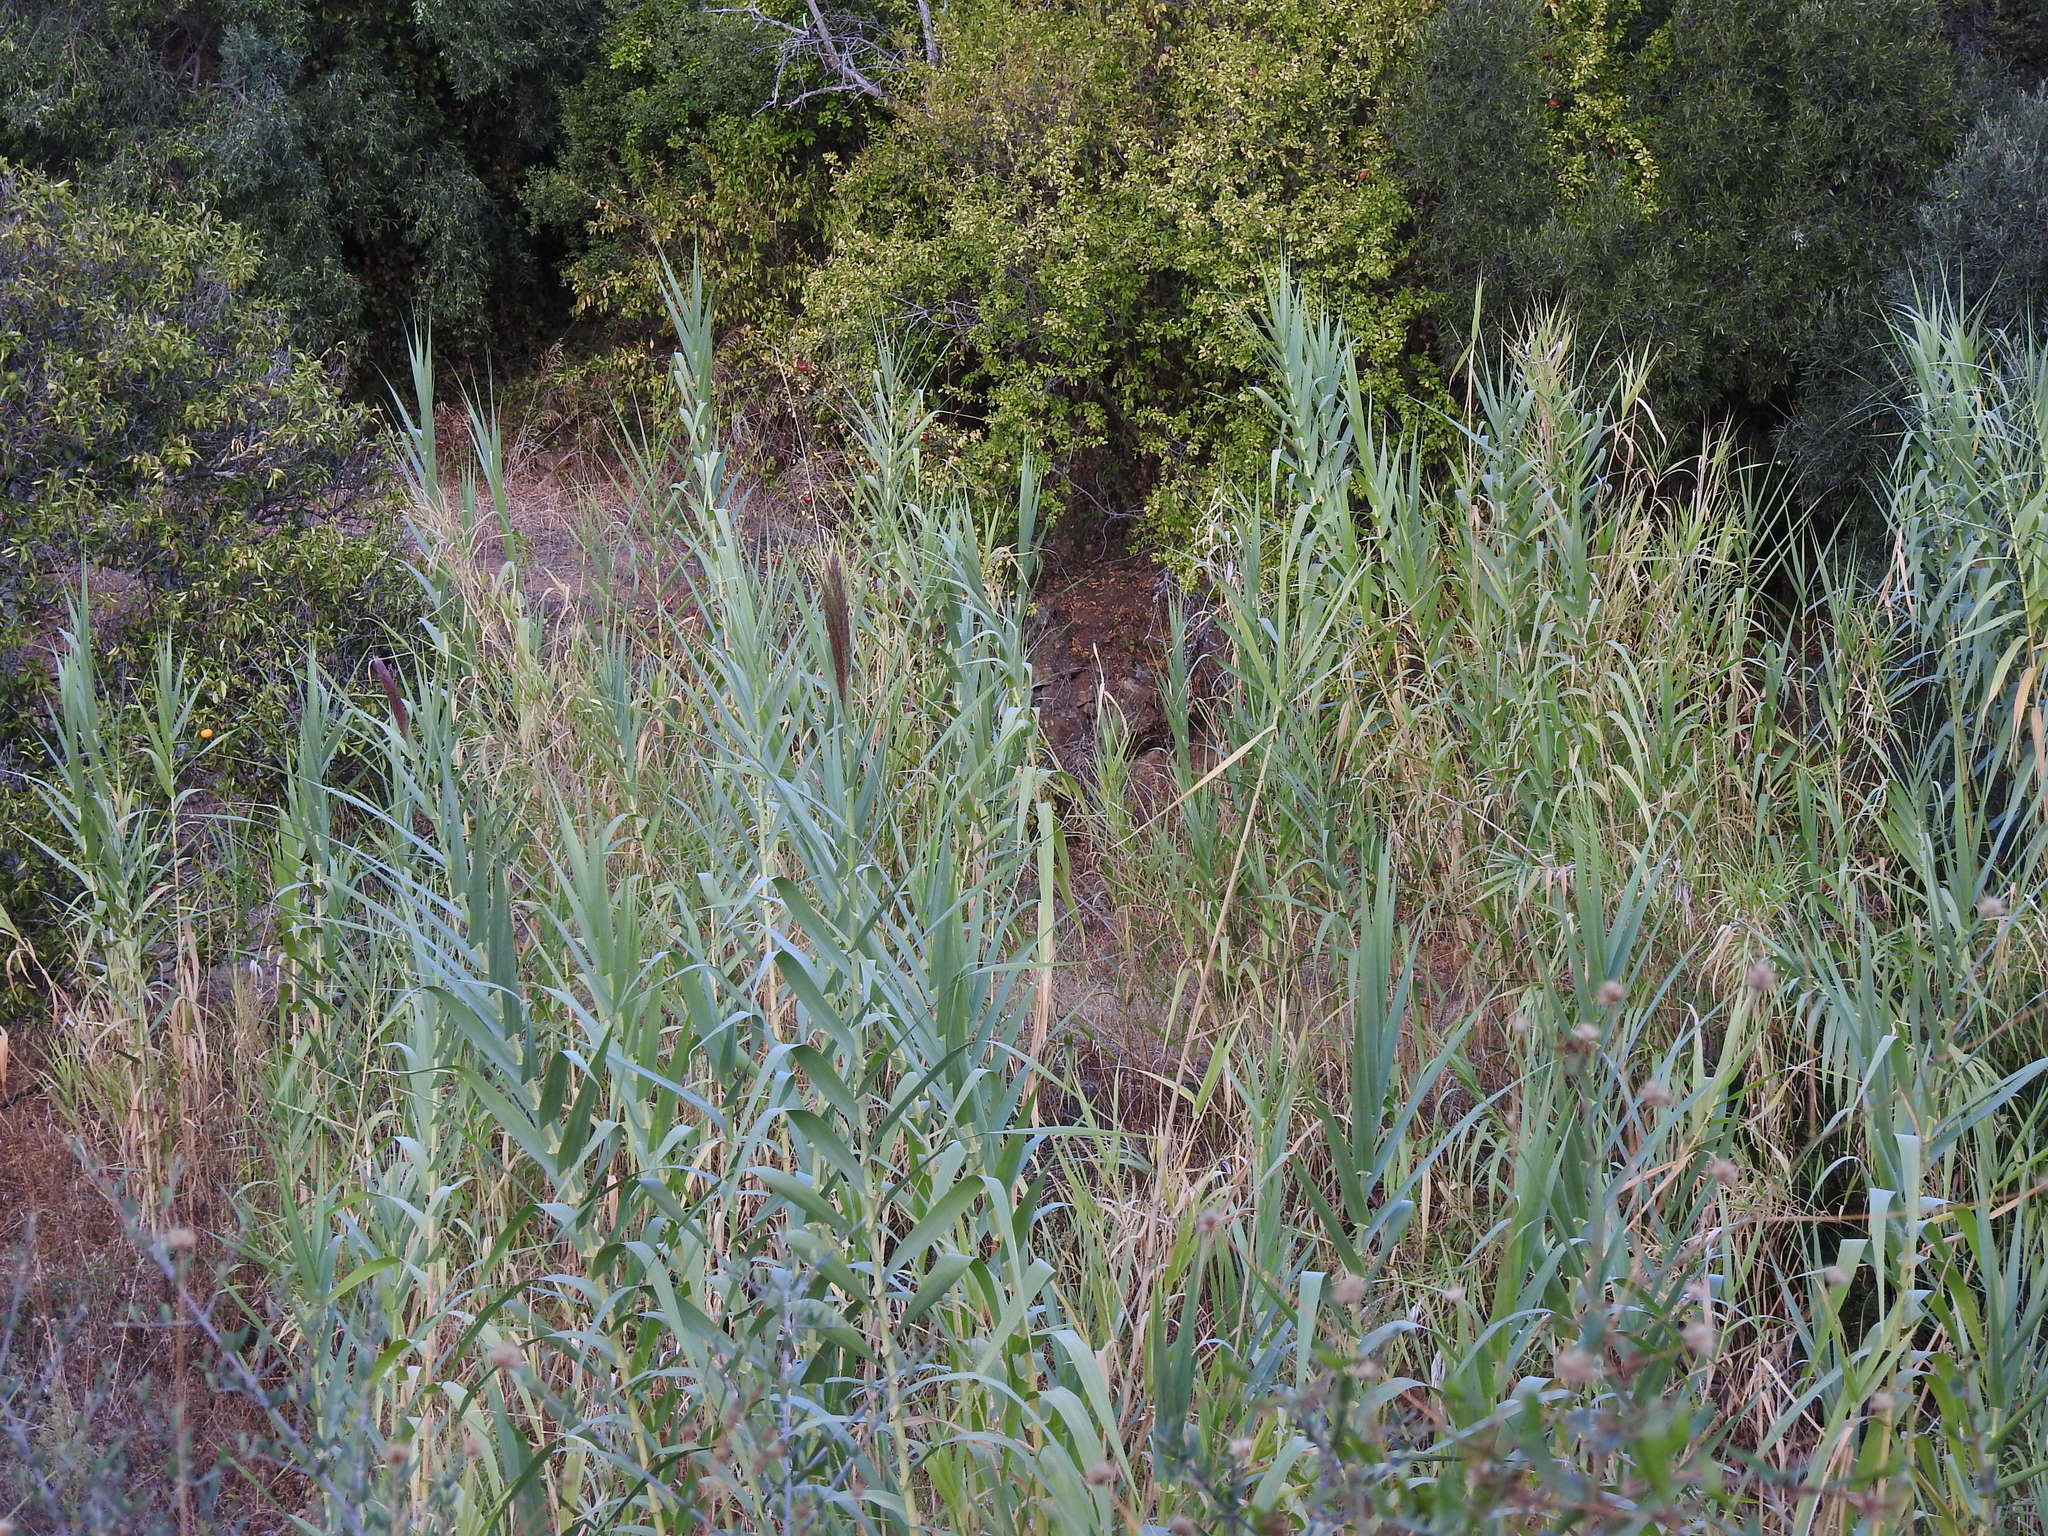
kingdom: Plantae
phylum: Tracheophyta
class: Liliopsida
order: Poales
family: Poaceae
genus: Arundo
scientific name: Arundo donax
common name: Giant reed
